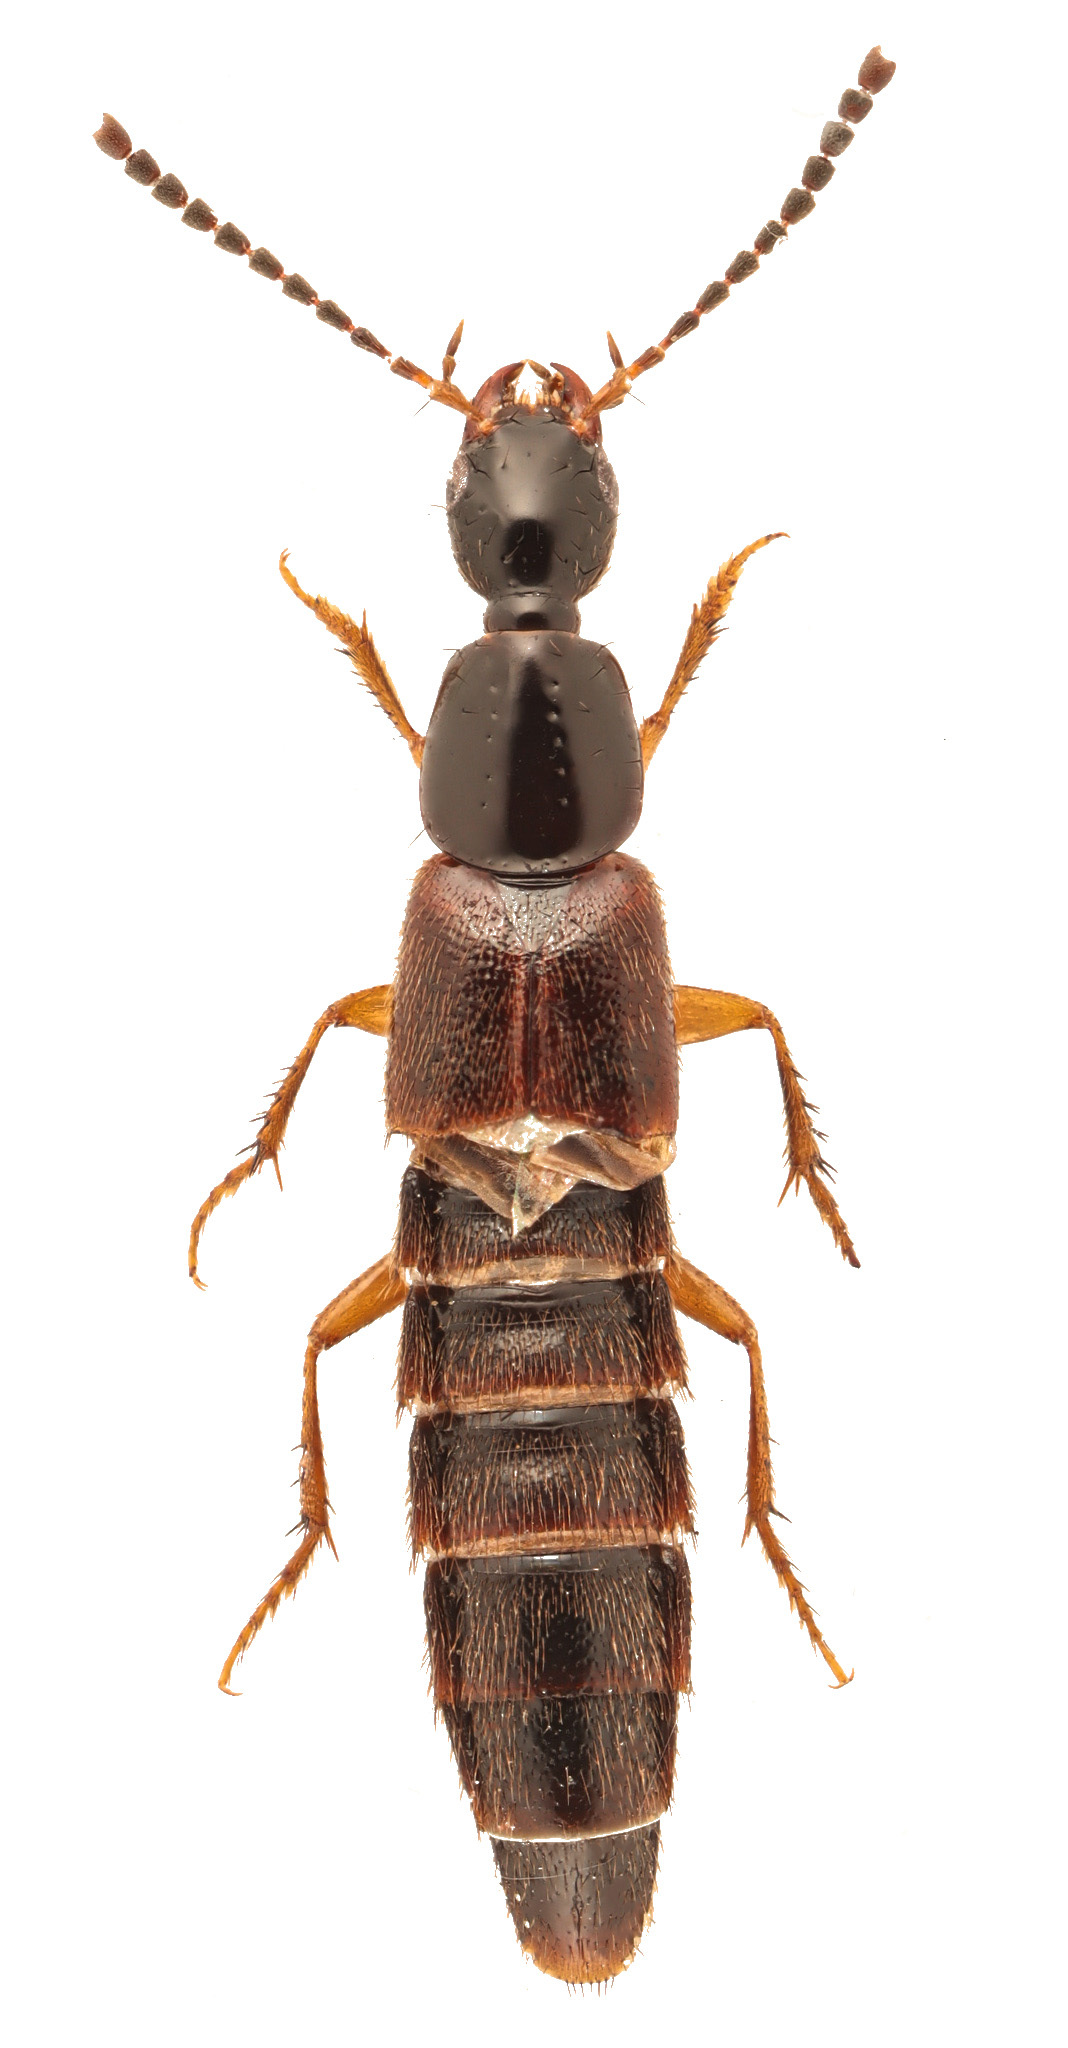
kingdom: Animalia
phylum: Arthropoda
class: Insecta
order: Coleoptera
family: Staphylinidae
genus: Philonthus
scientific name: Philonthus aequalis
